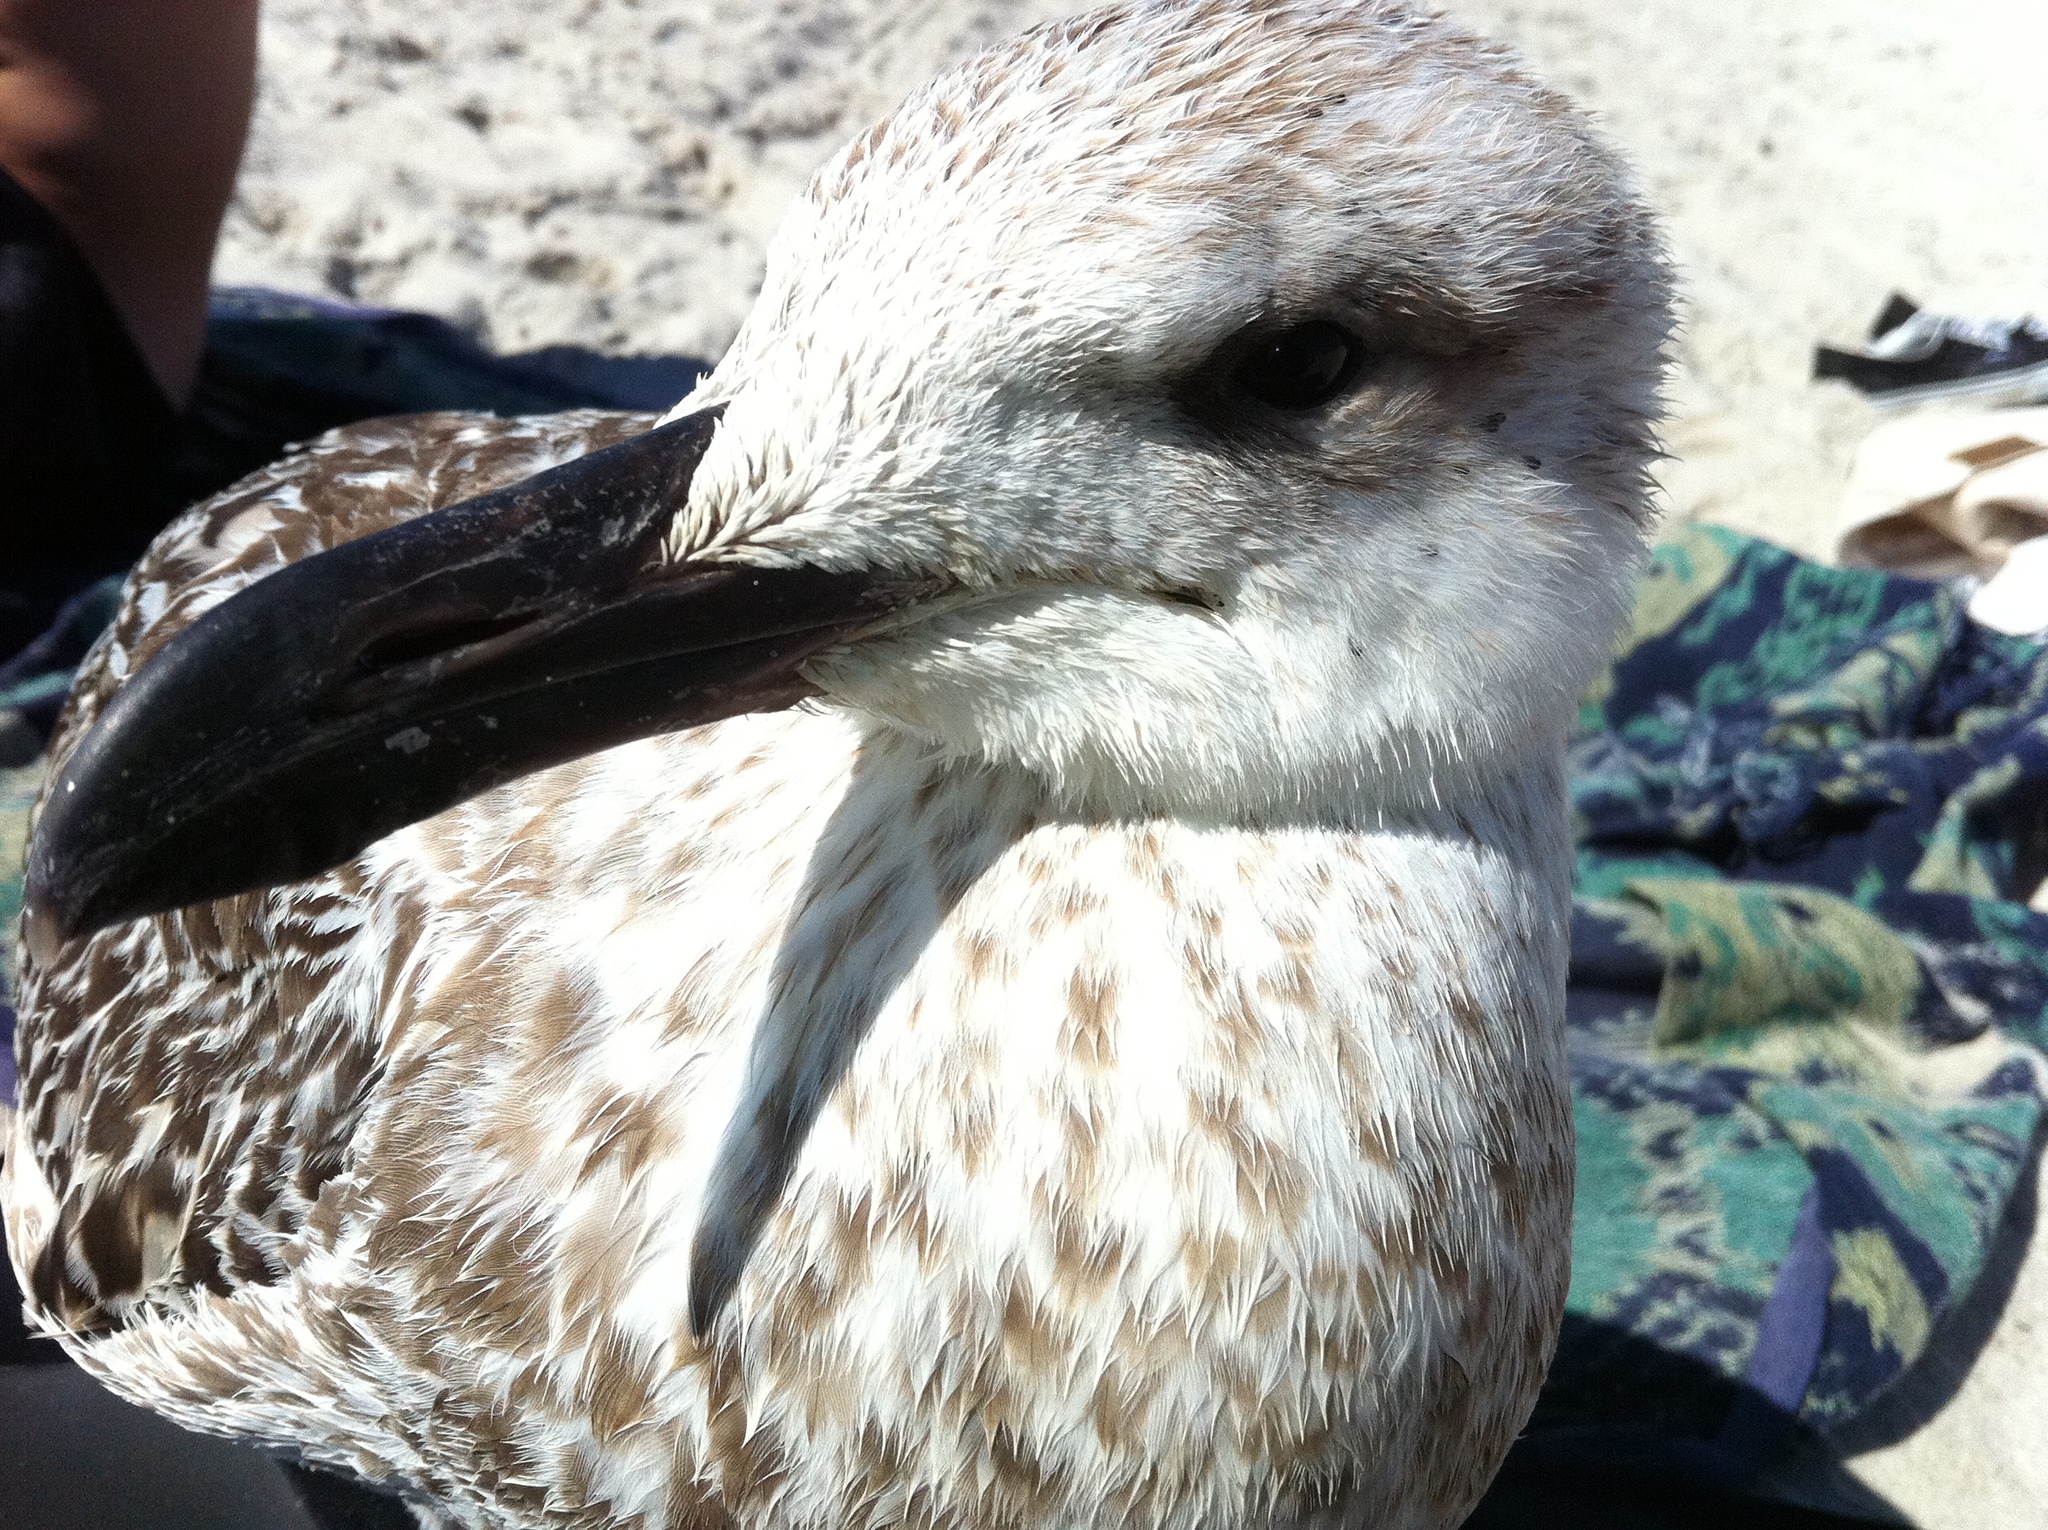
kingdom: Animalia
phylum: Chordata
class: Aves
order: Charadriiformes
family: Laridae
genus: Larus
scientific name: Larus marinus
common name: Great black-backed gull
